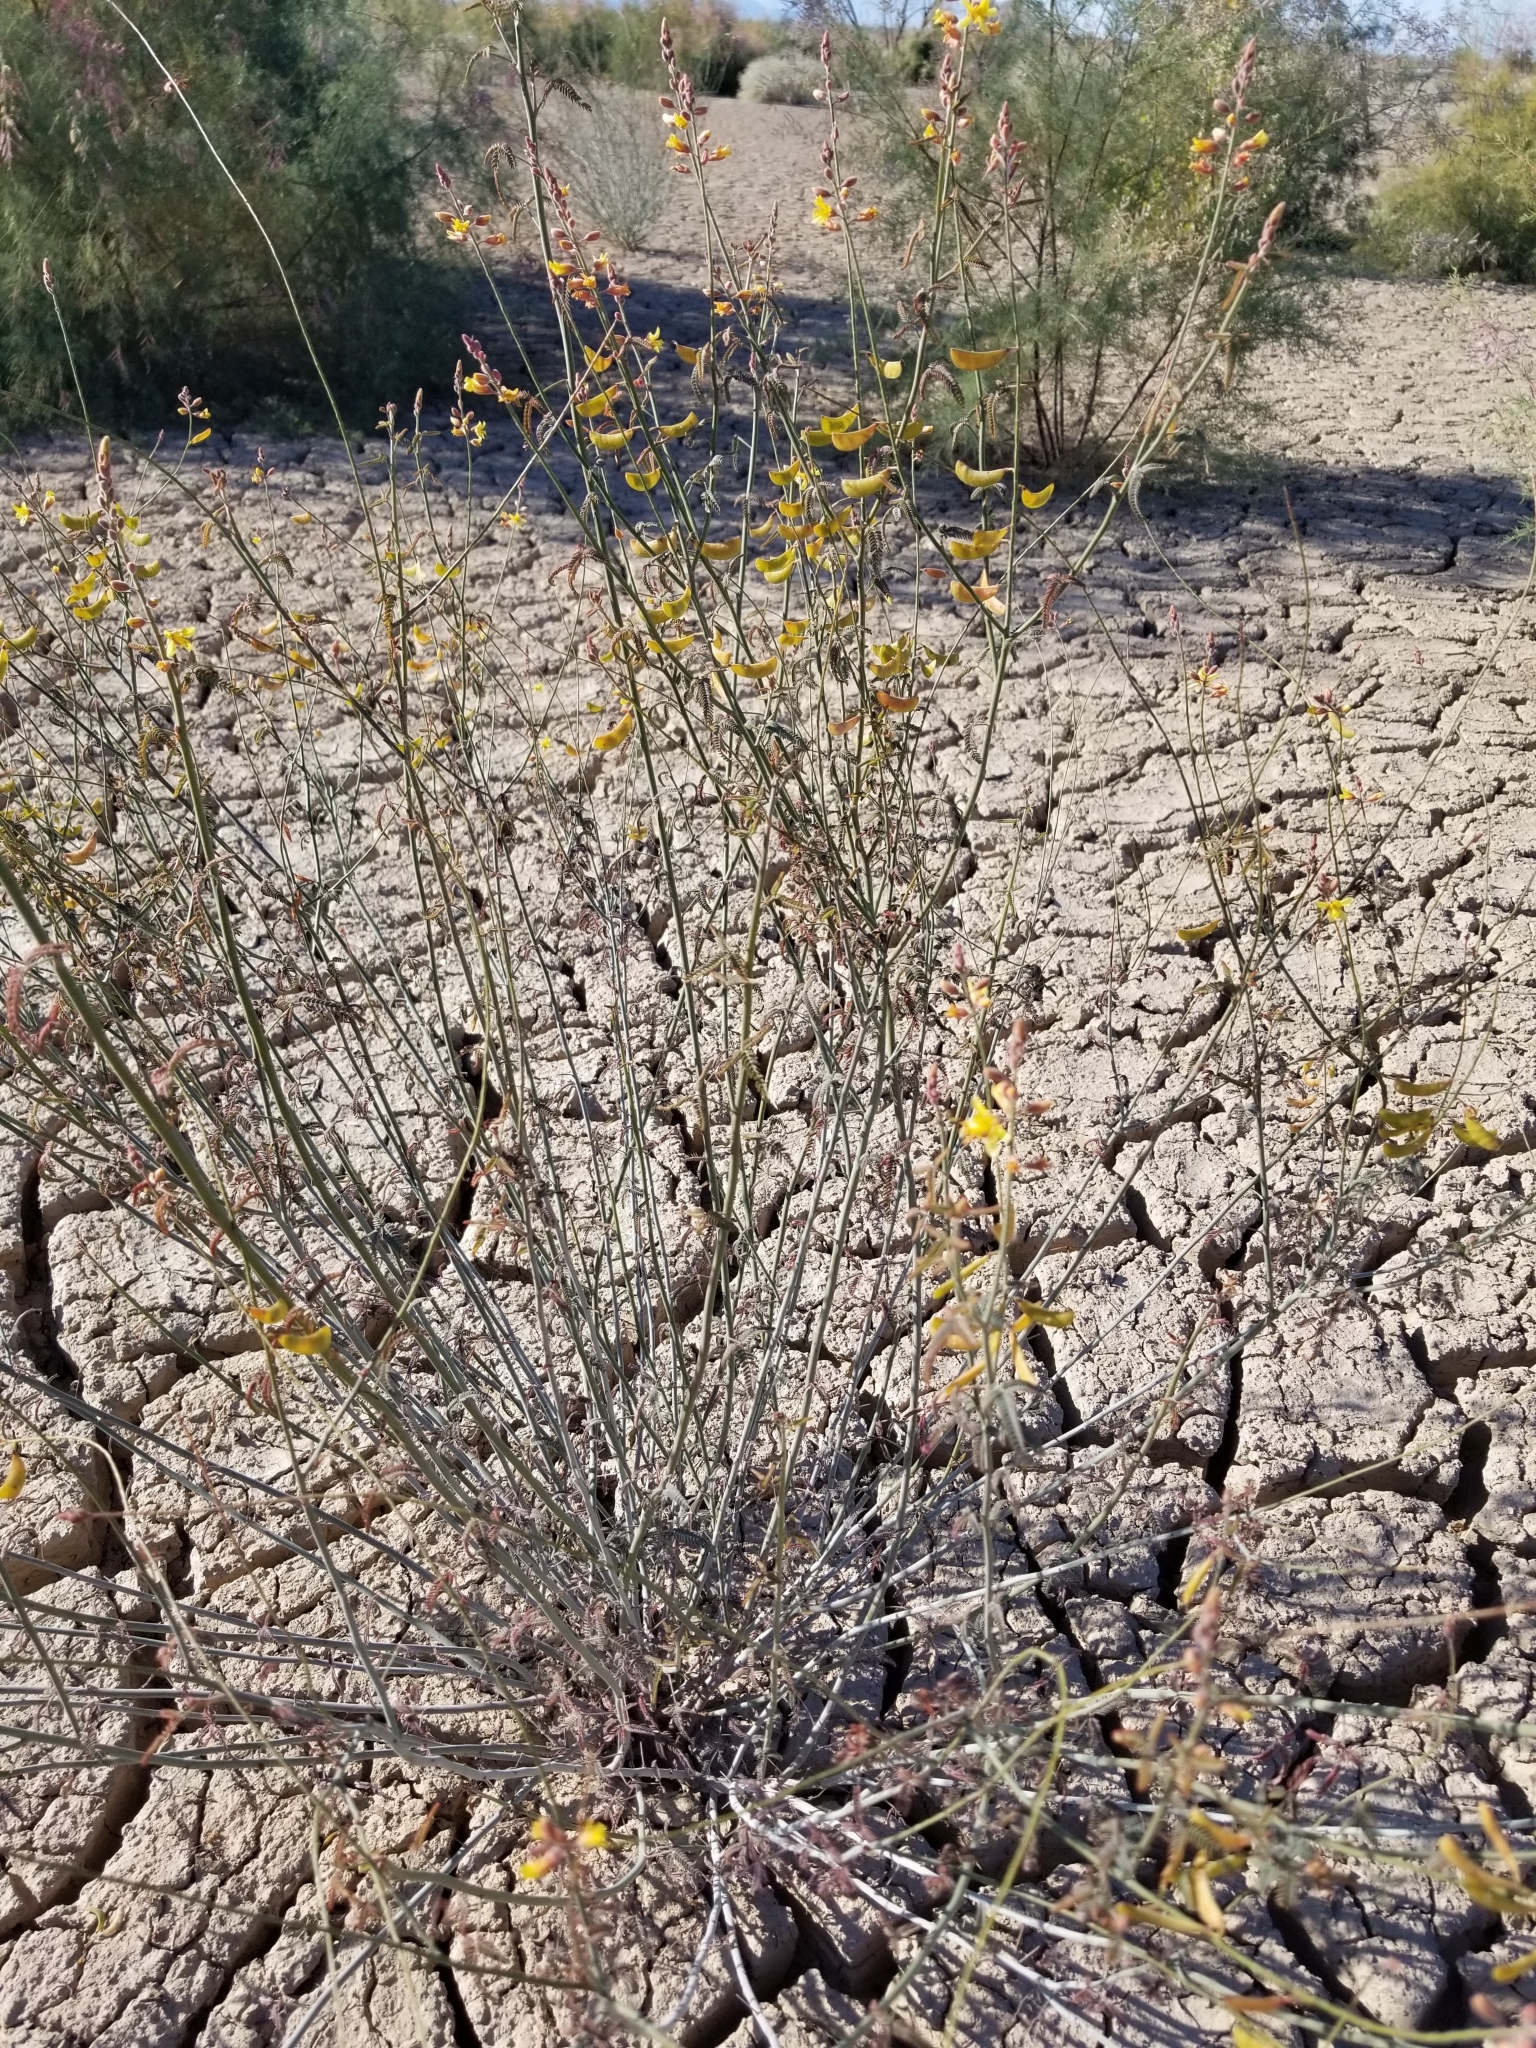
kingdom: Plantae
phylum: Tracheophyta
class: Magnoliopsida
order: Fabales
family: Fabaceae
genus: Hoffmannseggia
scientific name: Hoffmannseggia microphylla
